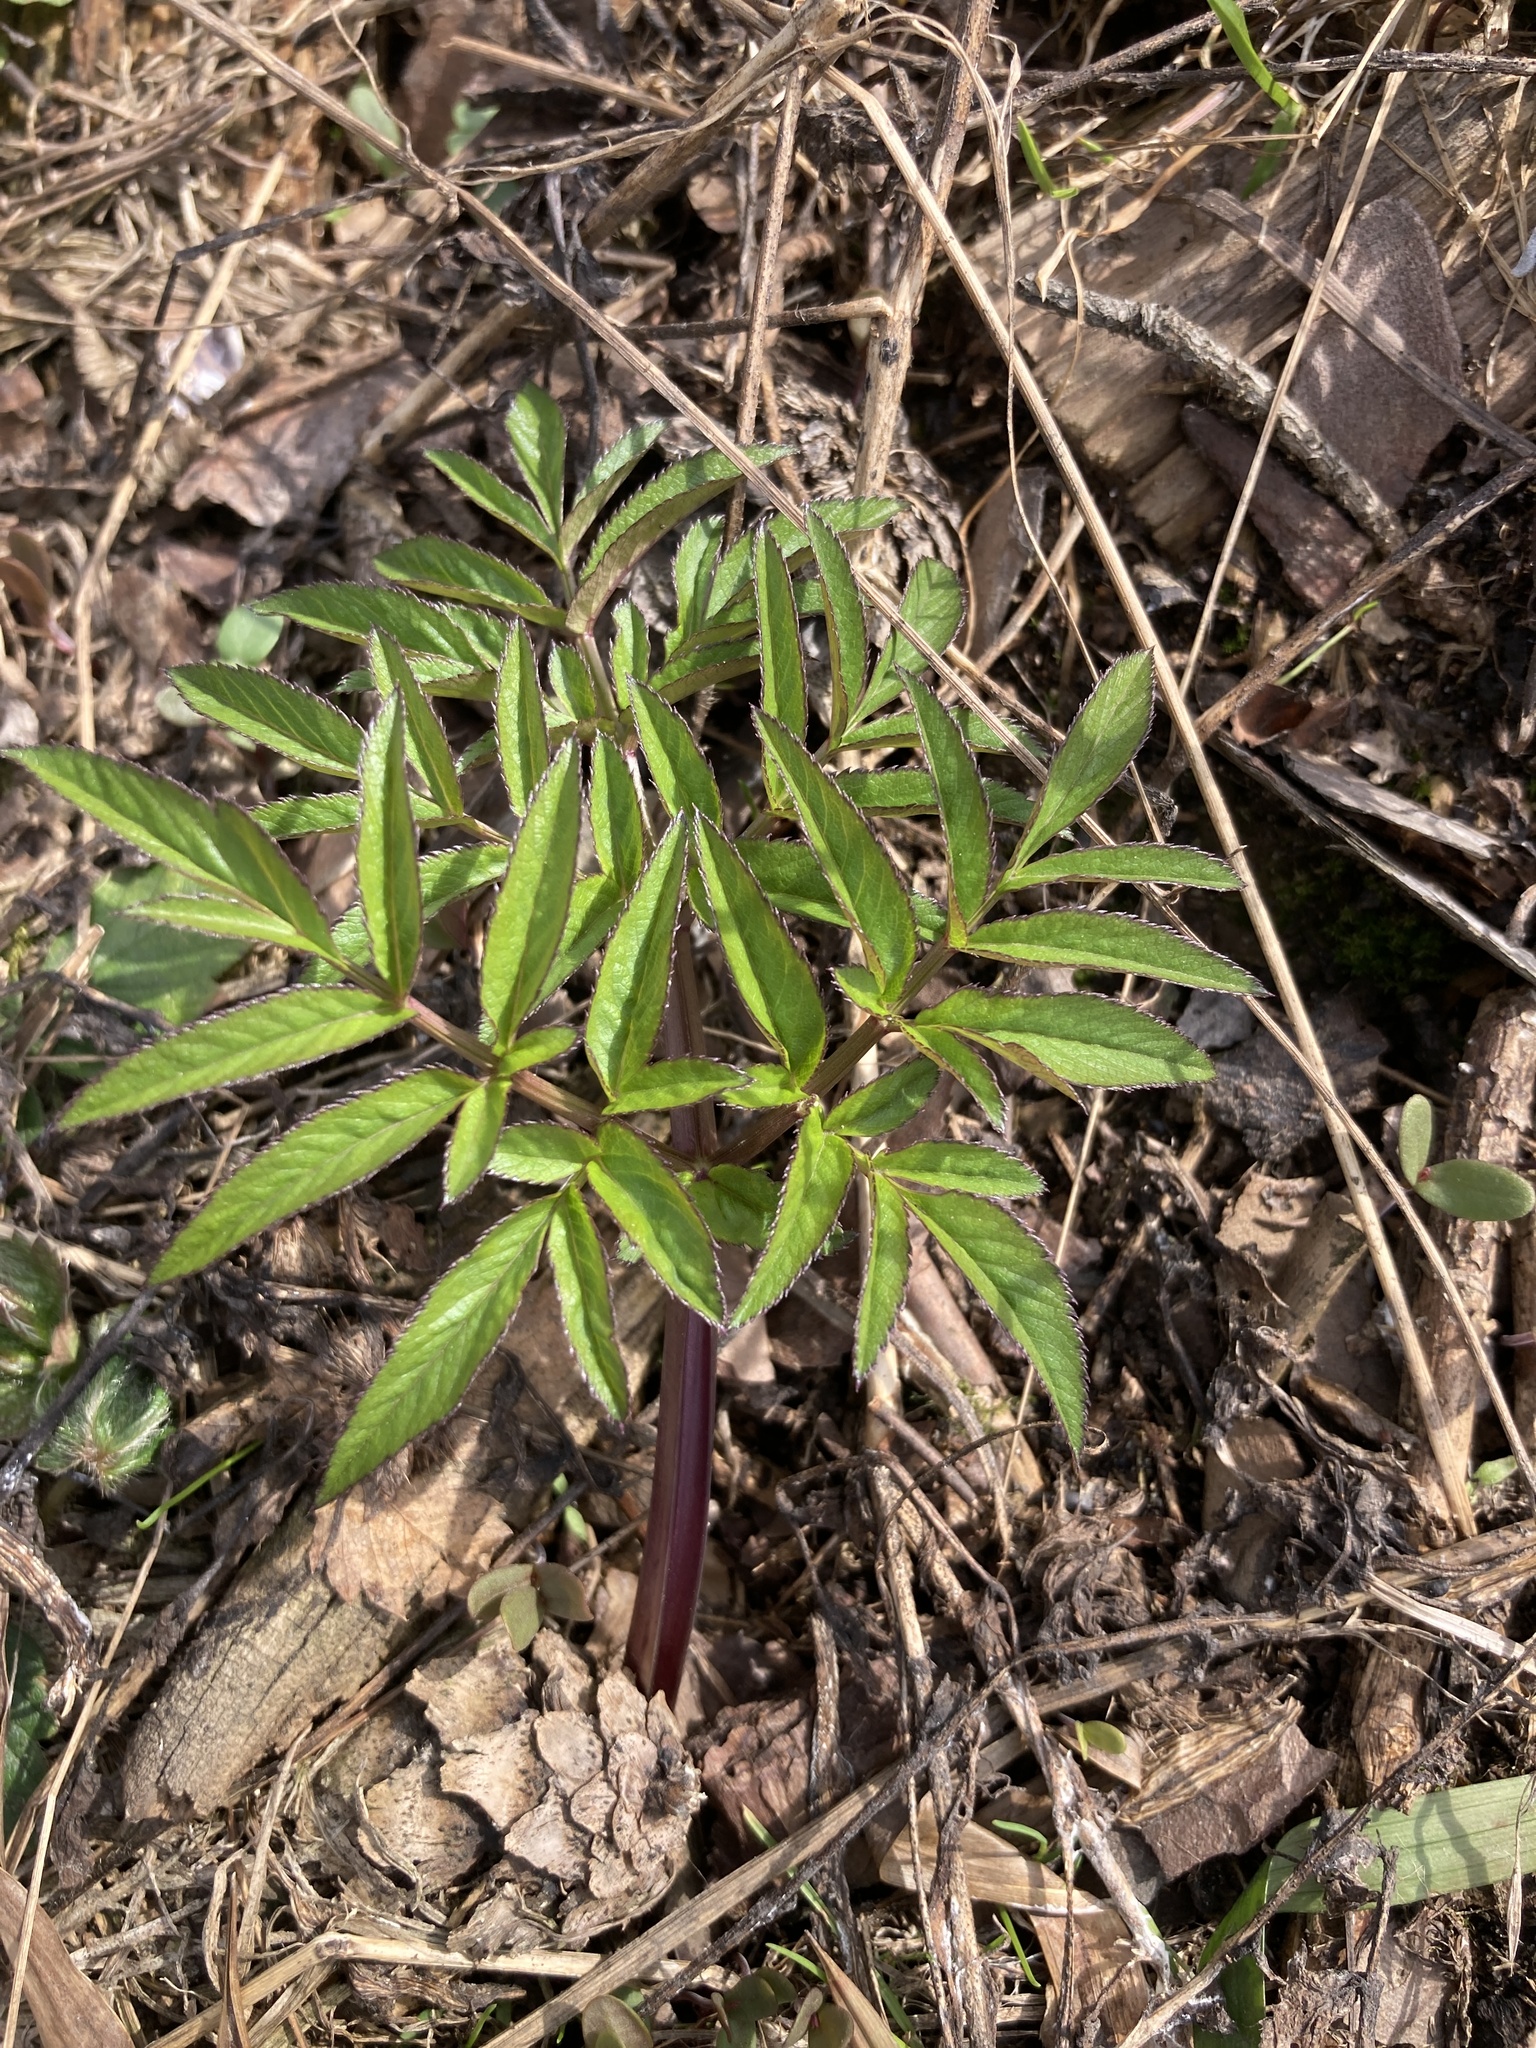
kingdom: Plantae
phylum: Tracheophyta
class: Magnoliopsida
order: Apiales
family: Apiaceae
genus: Angelica
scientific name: Angelica sylvestris
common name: Wild angelica
